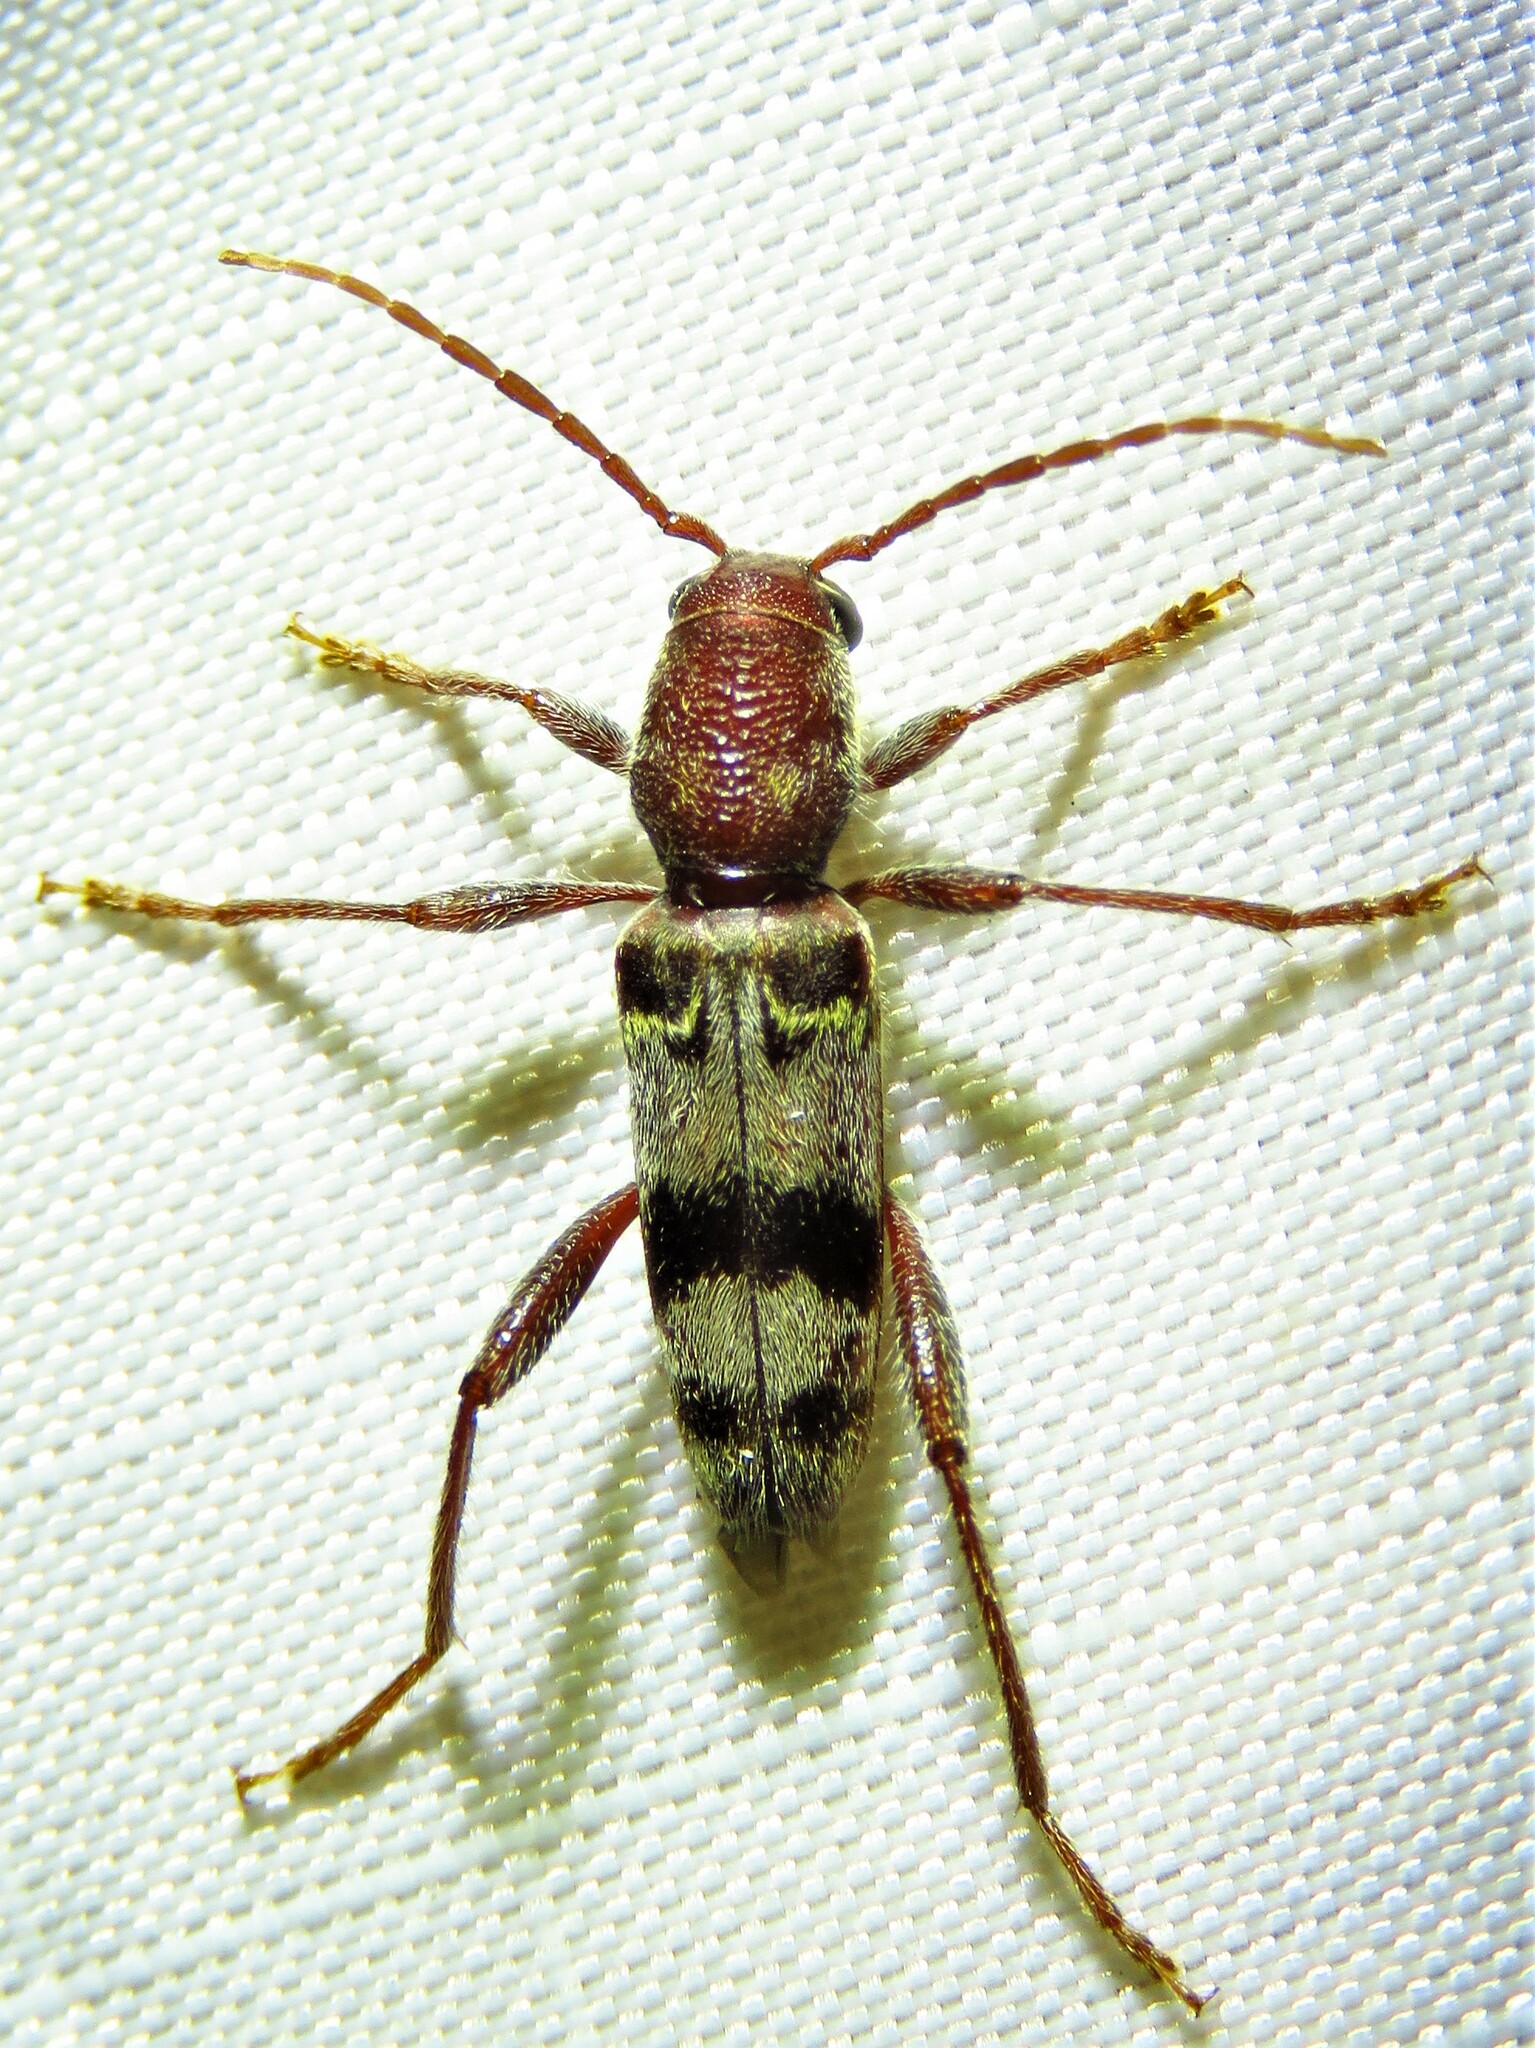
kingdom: Animalia
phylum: Arthropoda
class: Insecta
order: Coleoptera
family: Cerambycidae
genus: Xylotrechus
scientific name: Xylotrechus colonus
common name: Long-horned beetle
